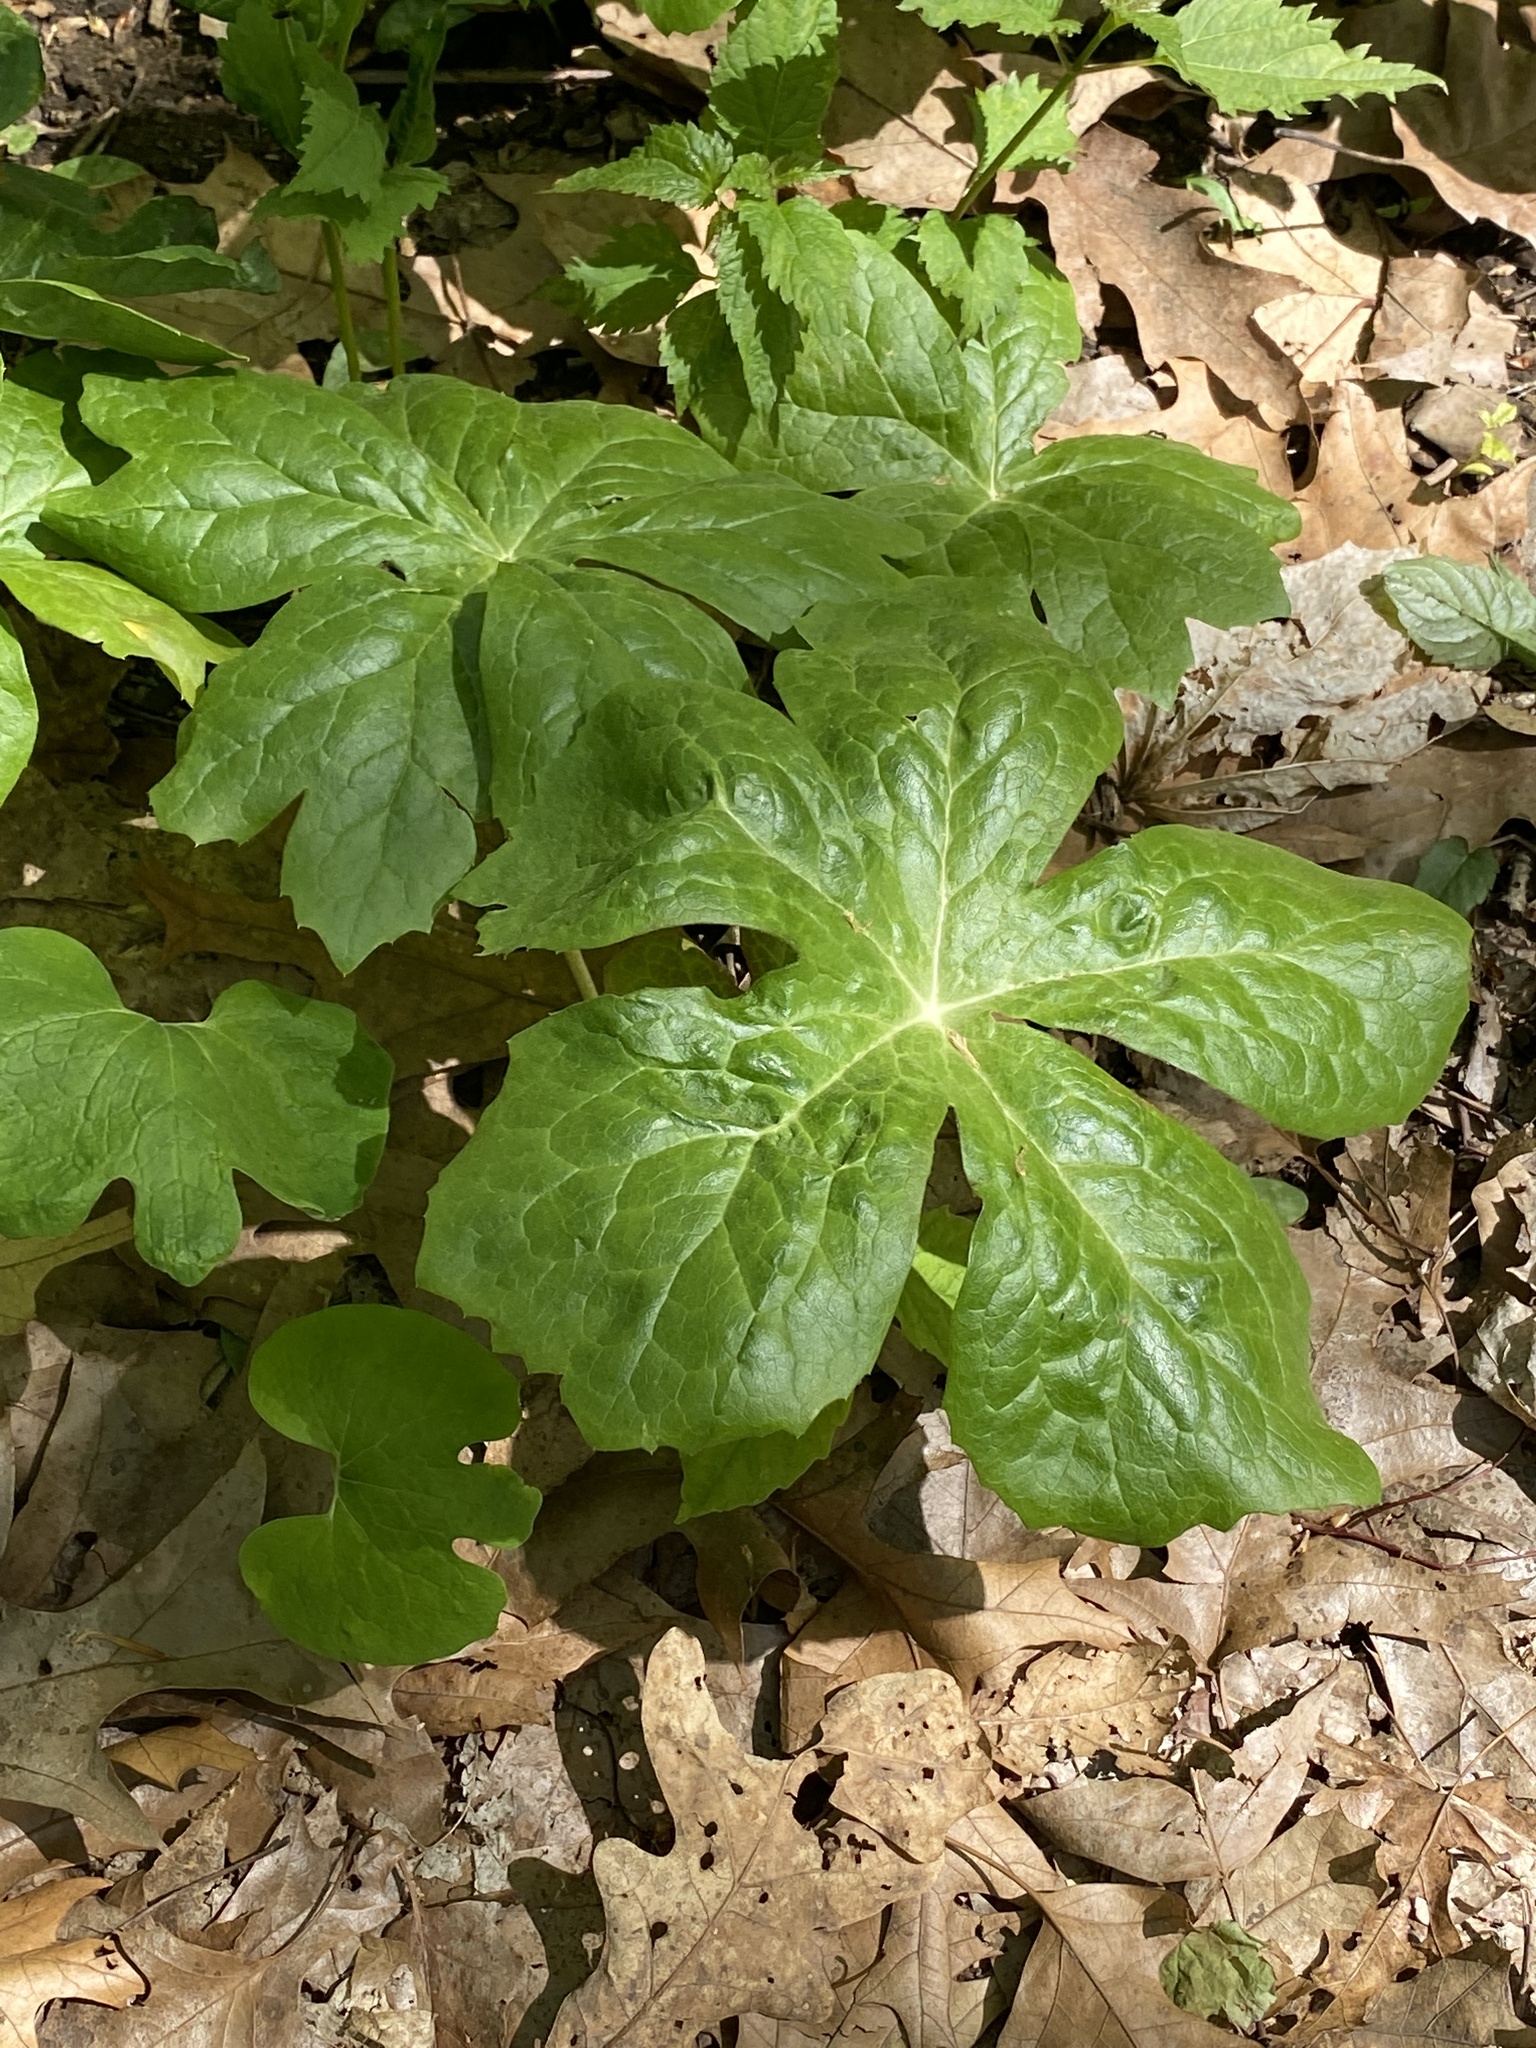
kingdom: Plantae
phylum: Tracheophyta
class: Magnoliopsida
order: Ranunculales
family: Berberidaceae
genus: Podophyllum
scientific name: Podophyllum peltatum
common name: Wild mandrake
